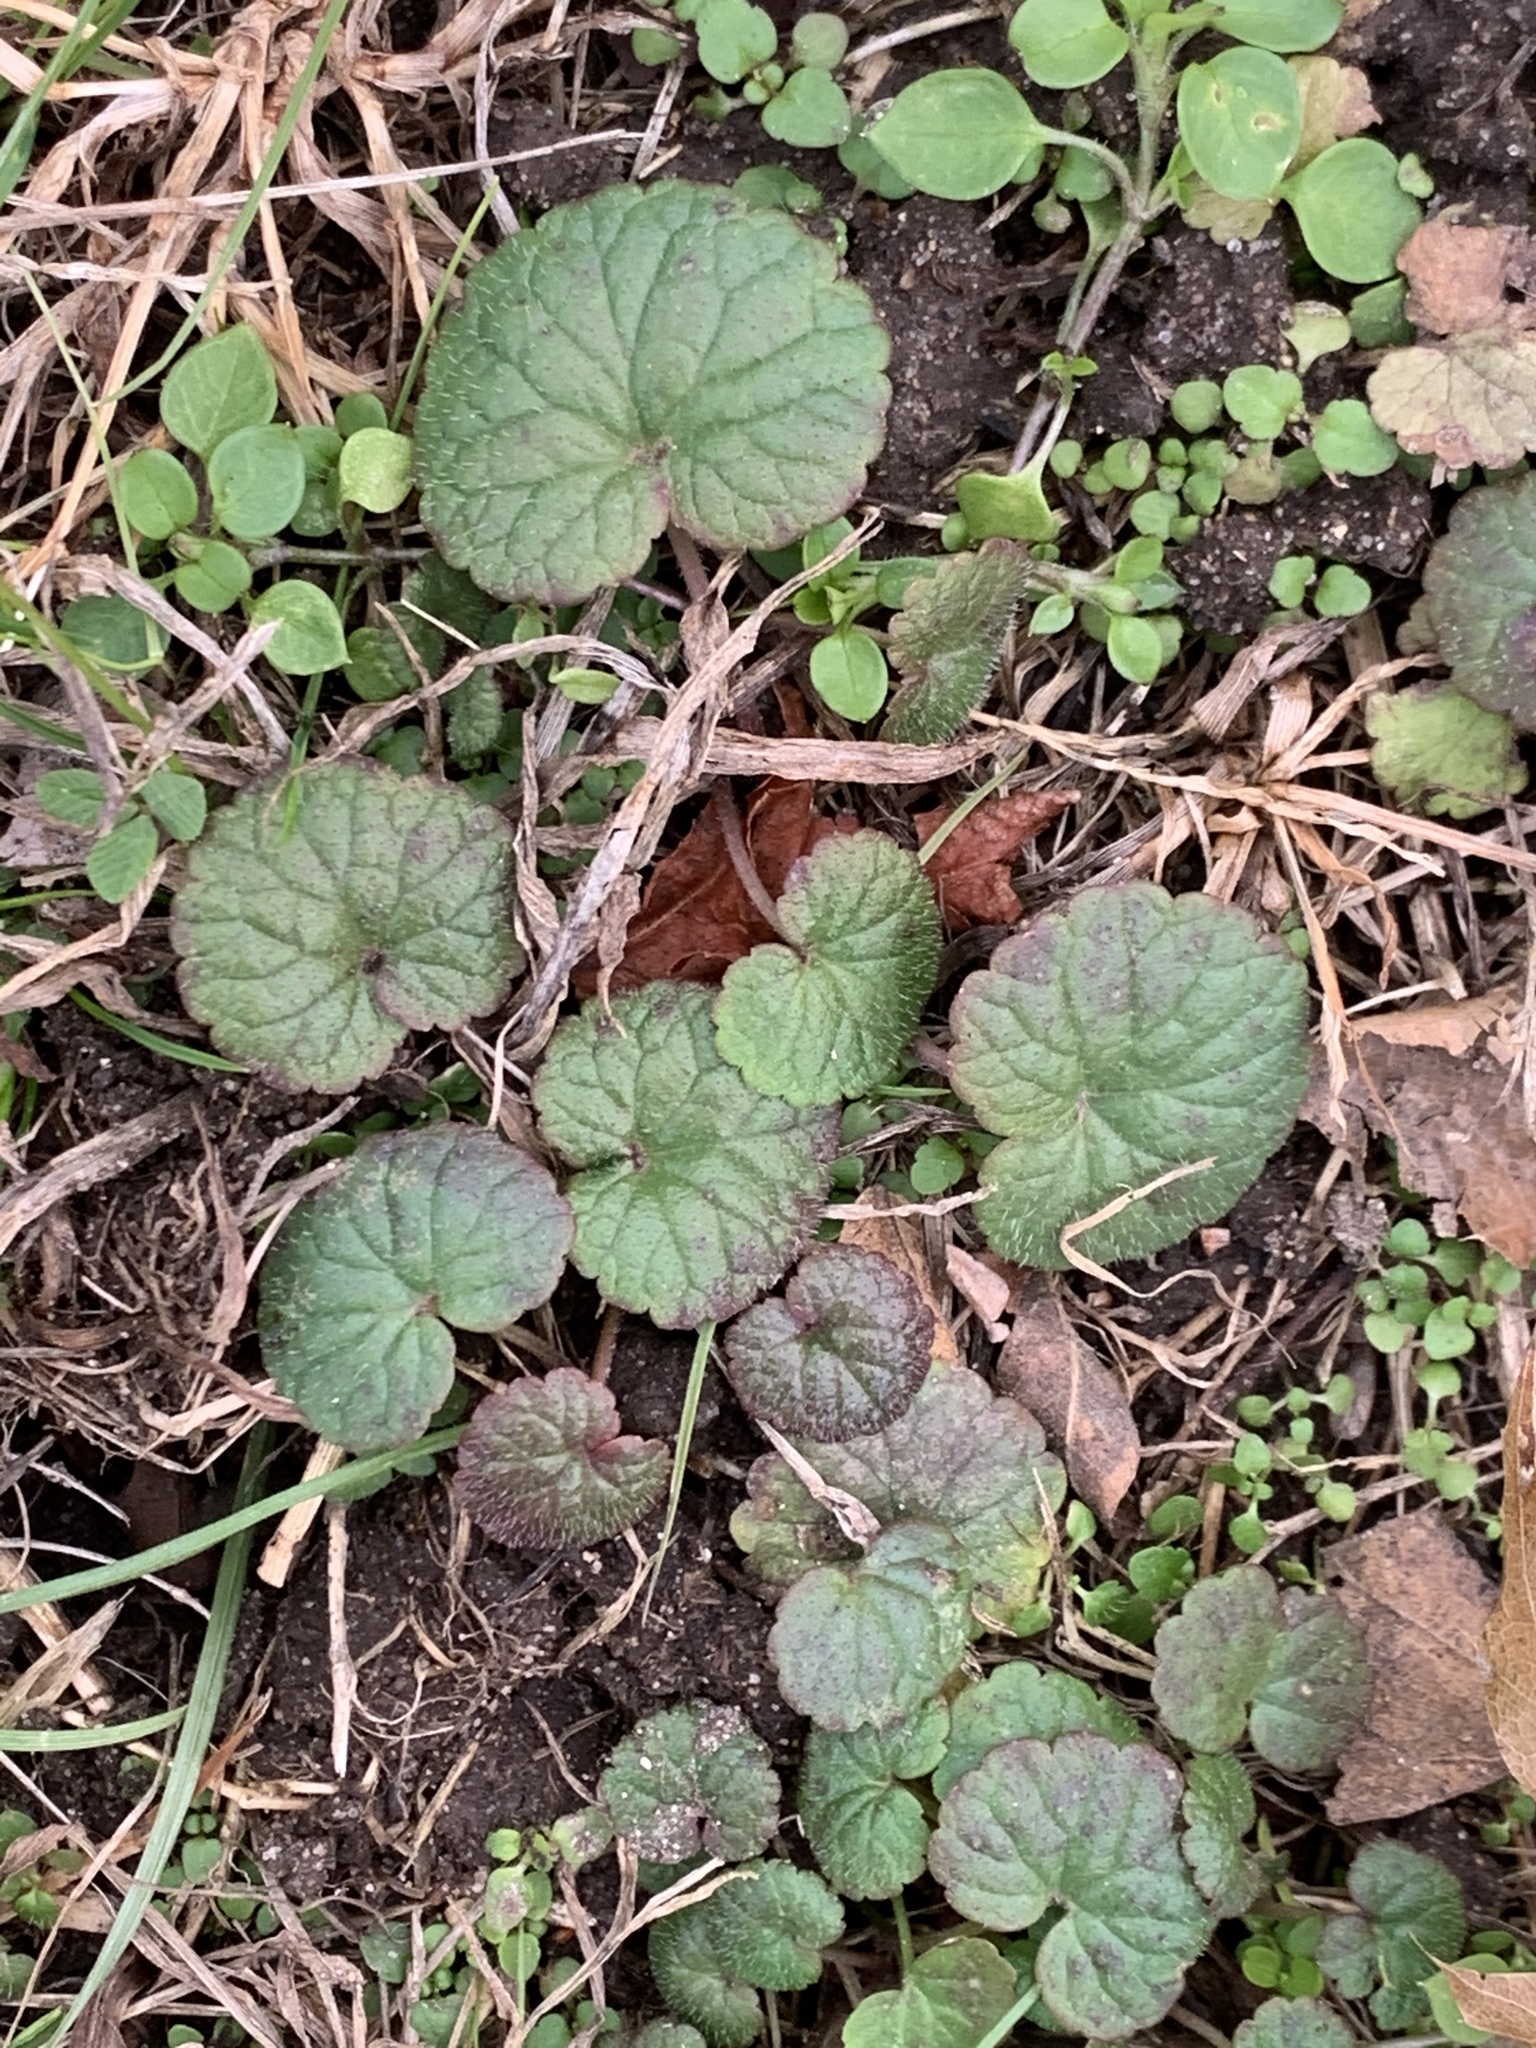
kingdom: Plantae
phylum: Tracheophyta
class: Magnoliopsida
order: Lamiales
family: Lamiaceae
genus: Glechoma
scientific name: Glechoma hederacea
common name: Ground ivy
